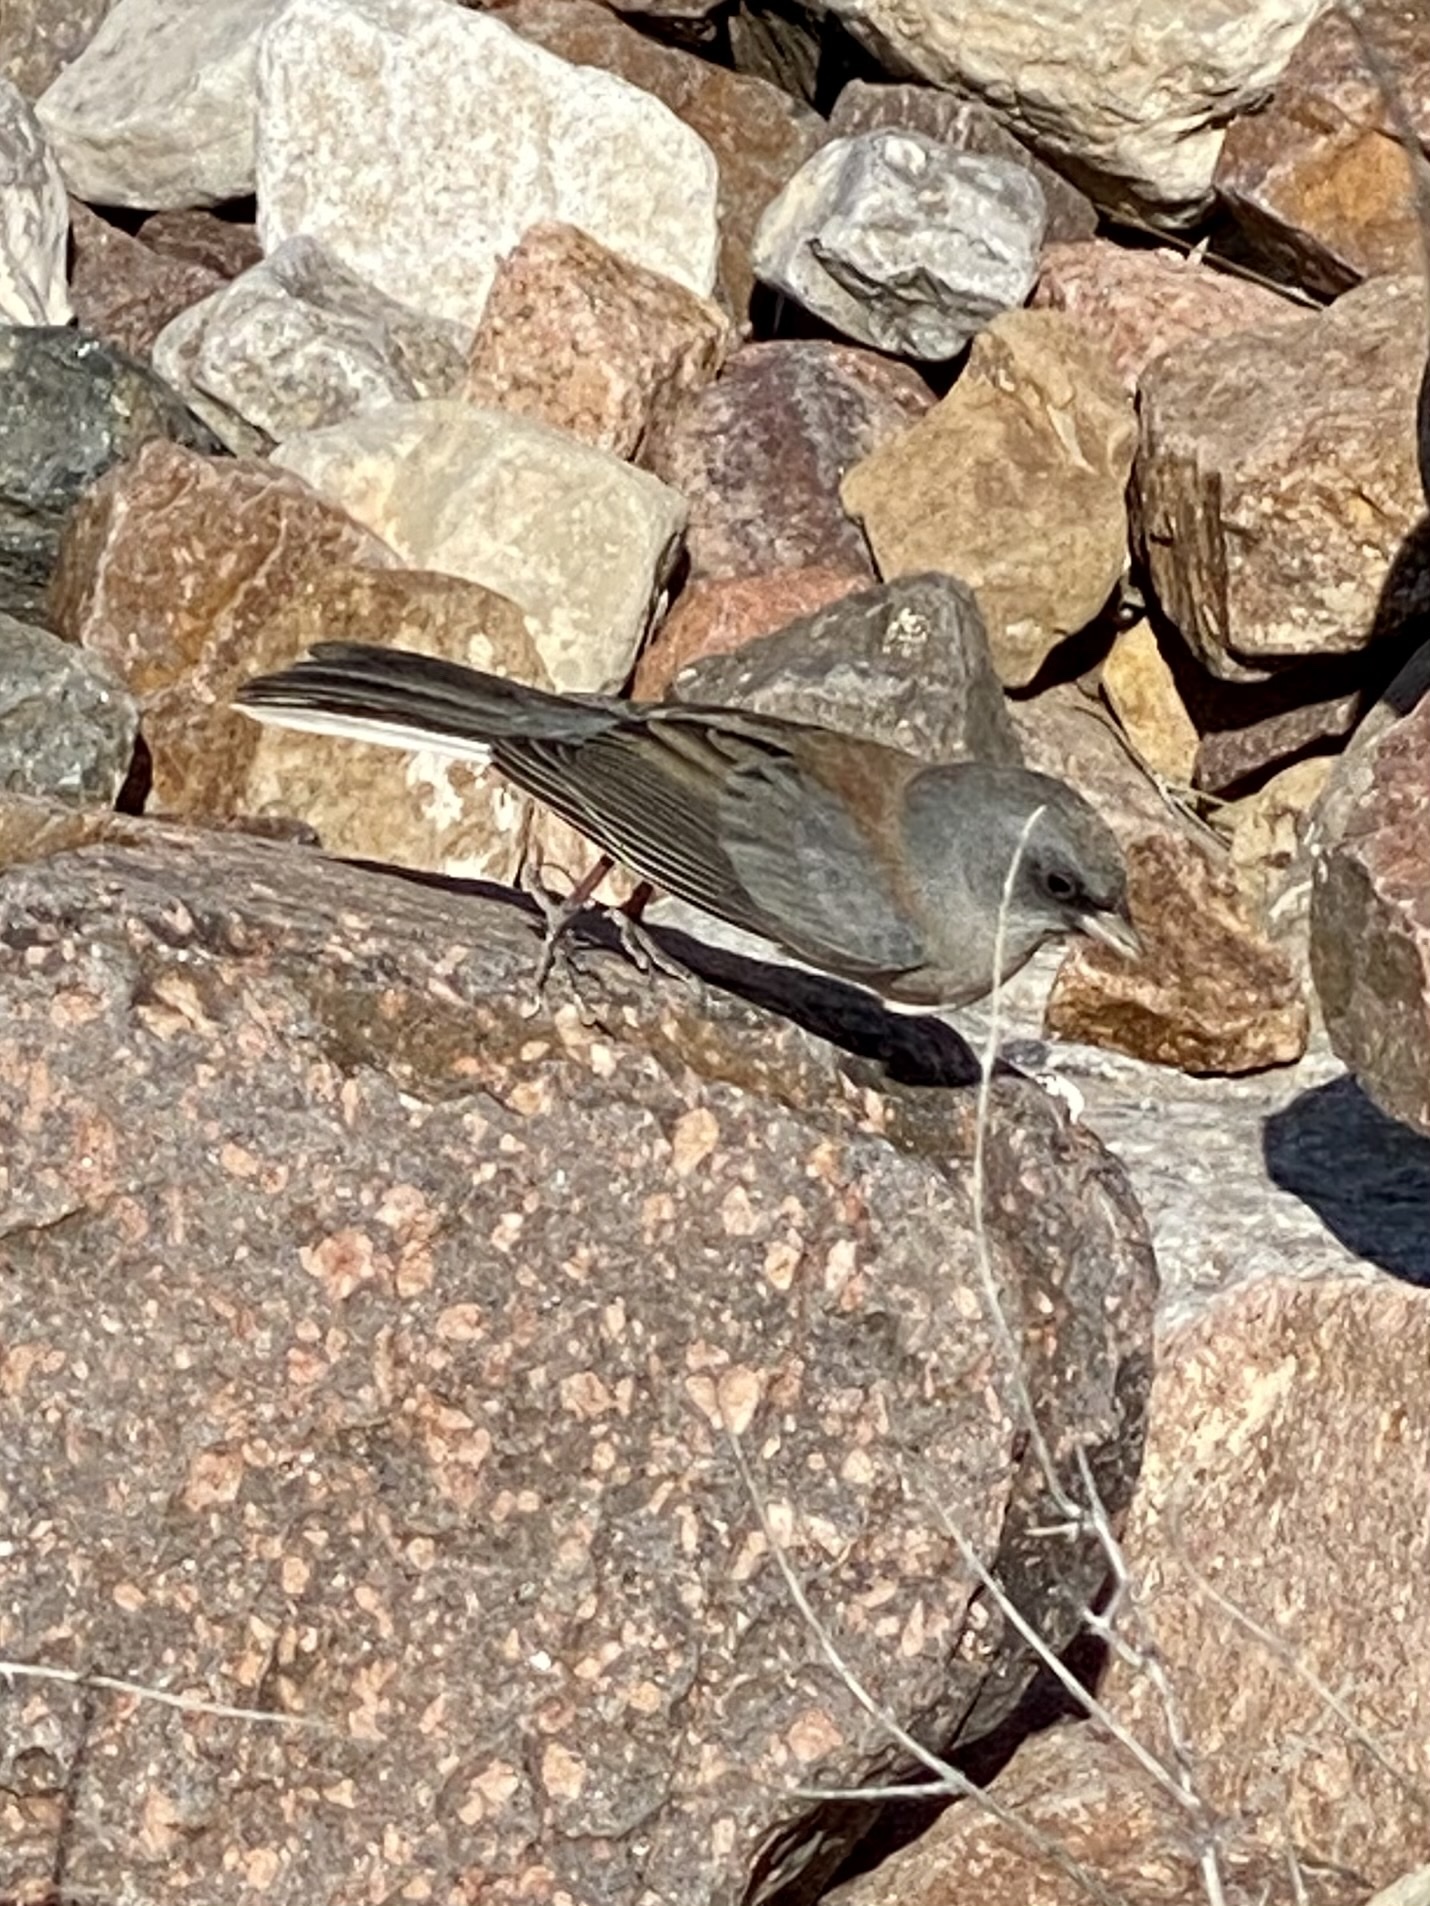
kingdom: Animalia
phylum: Chordata
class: Aves
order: Passeriformes
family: Passerellidae
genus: Junco
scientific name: Junco hyemalis
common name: Dark-eyed junco
